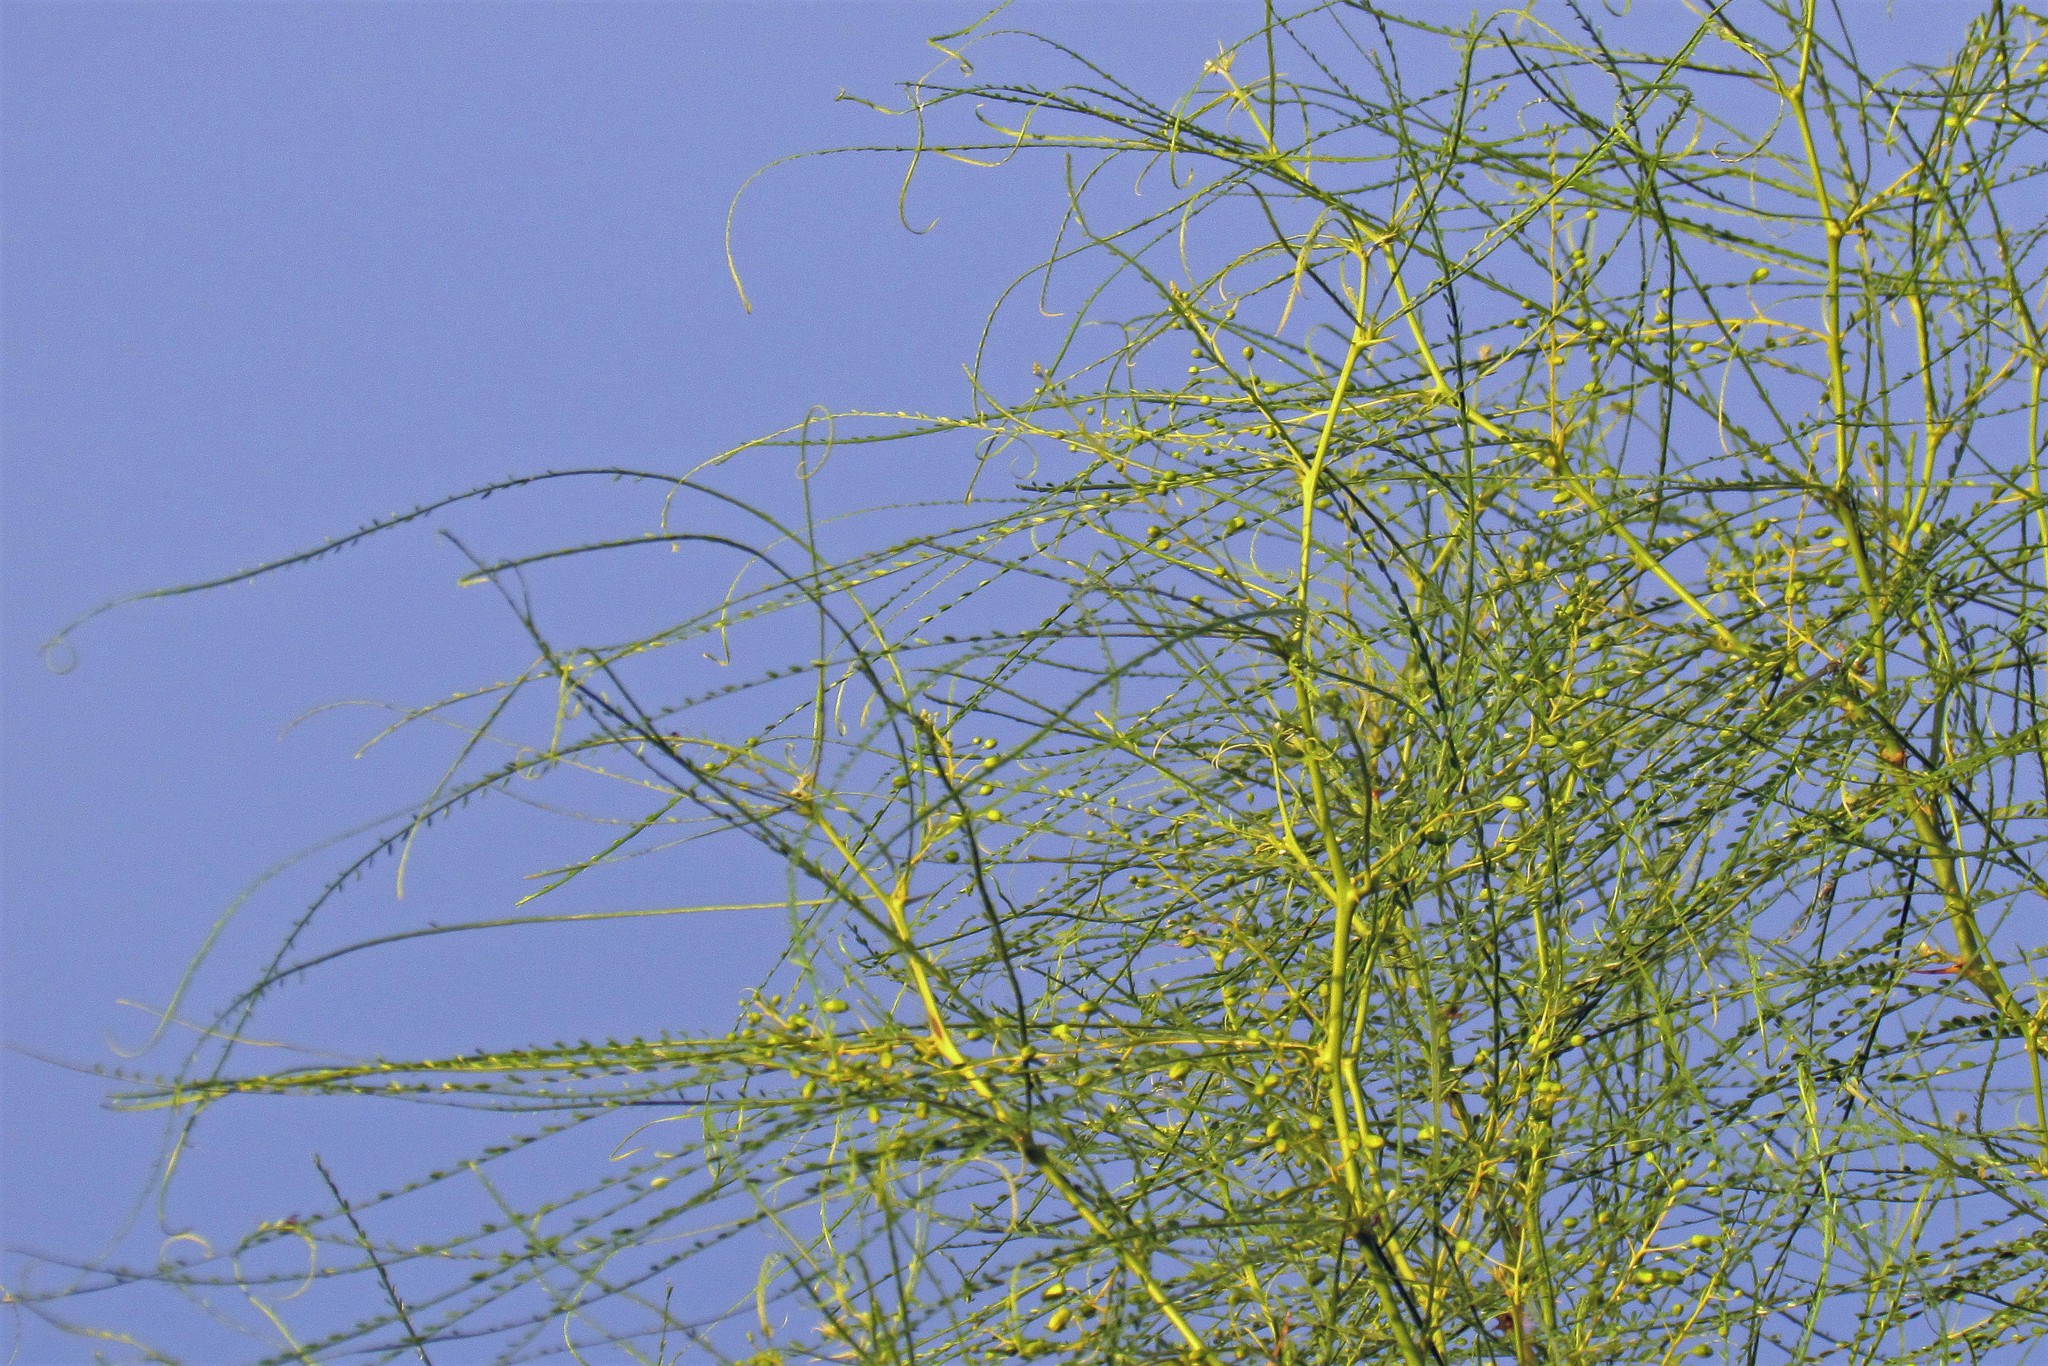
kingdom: Plantae
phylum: Tracheophyta
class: Magnoliopsida
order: Fabales
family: Fabaceae
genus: Parkinsonia
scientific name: Parkinsonia aculeata
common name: Jerusalem thorn
